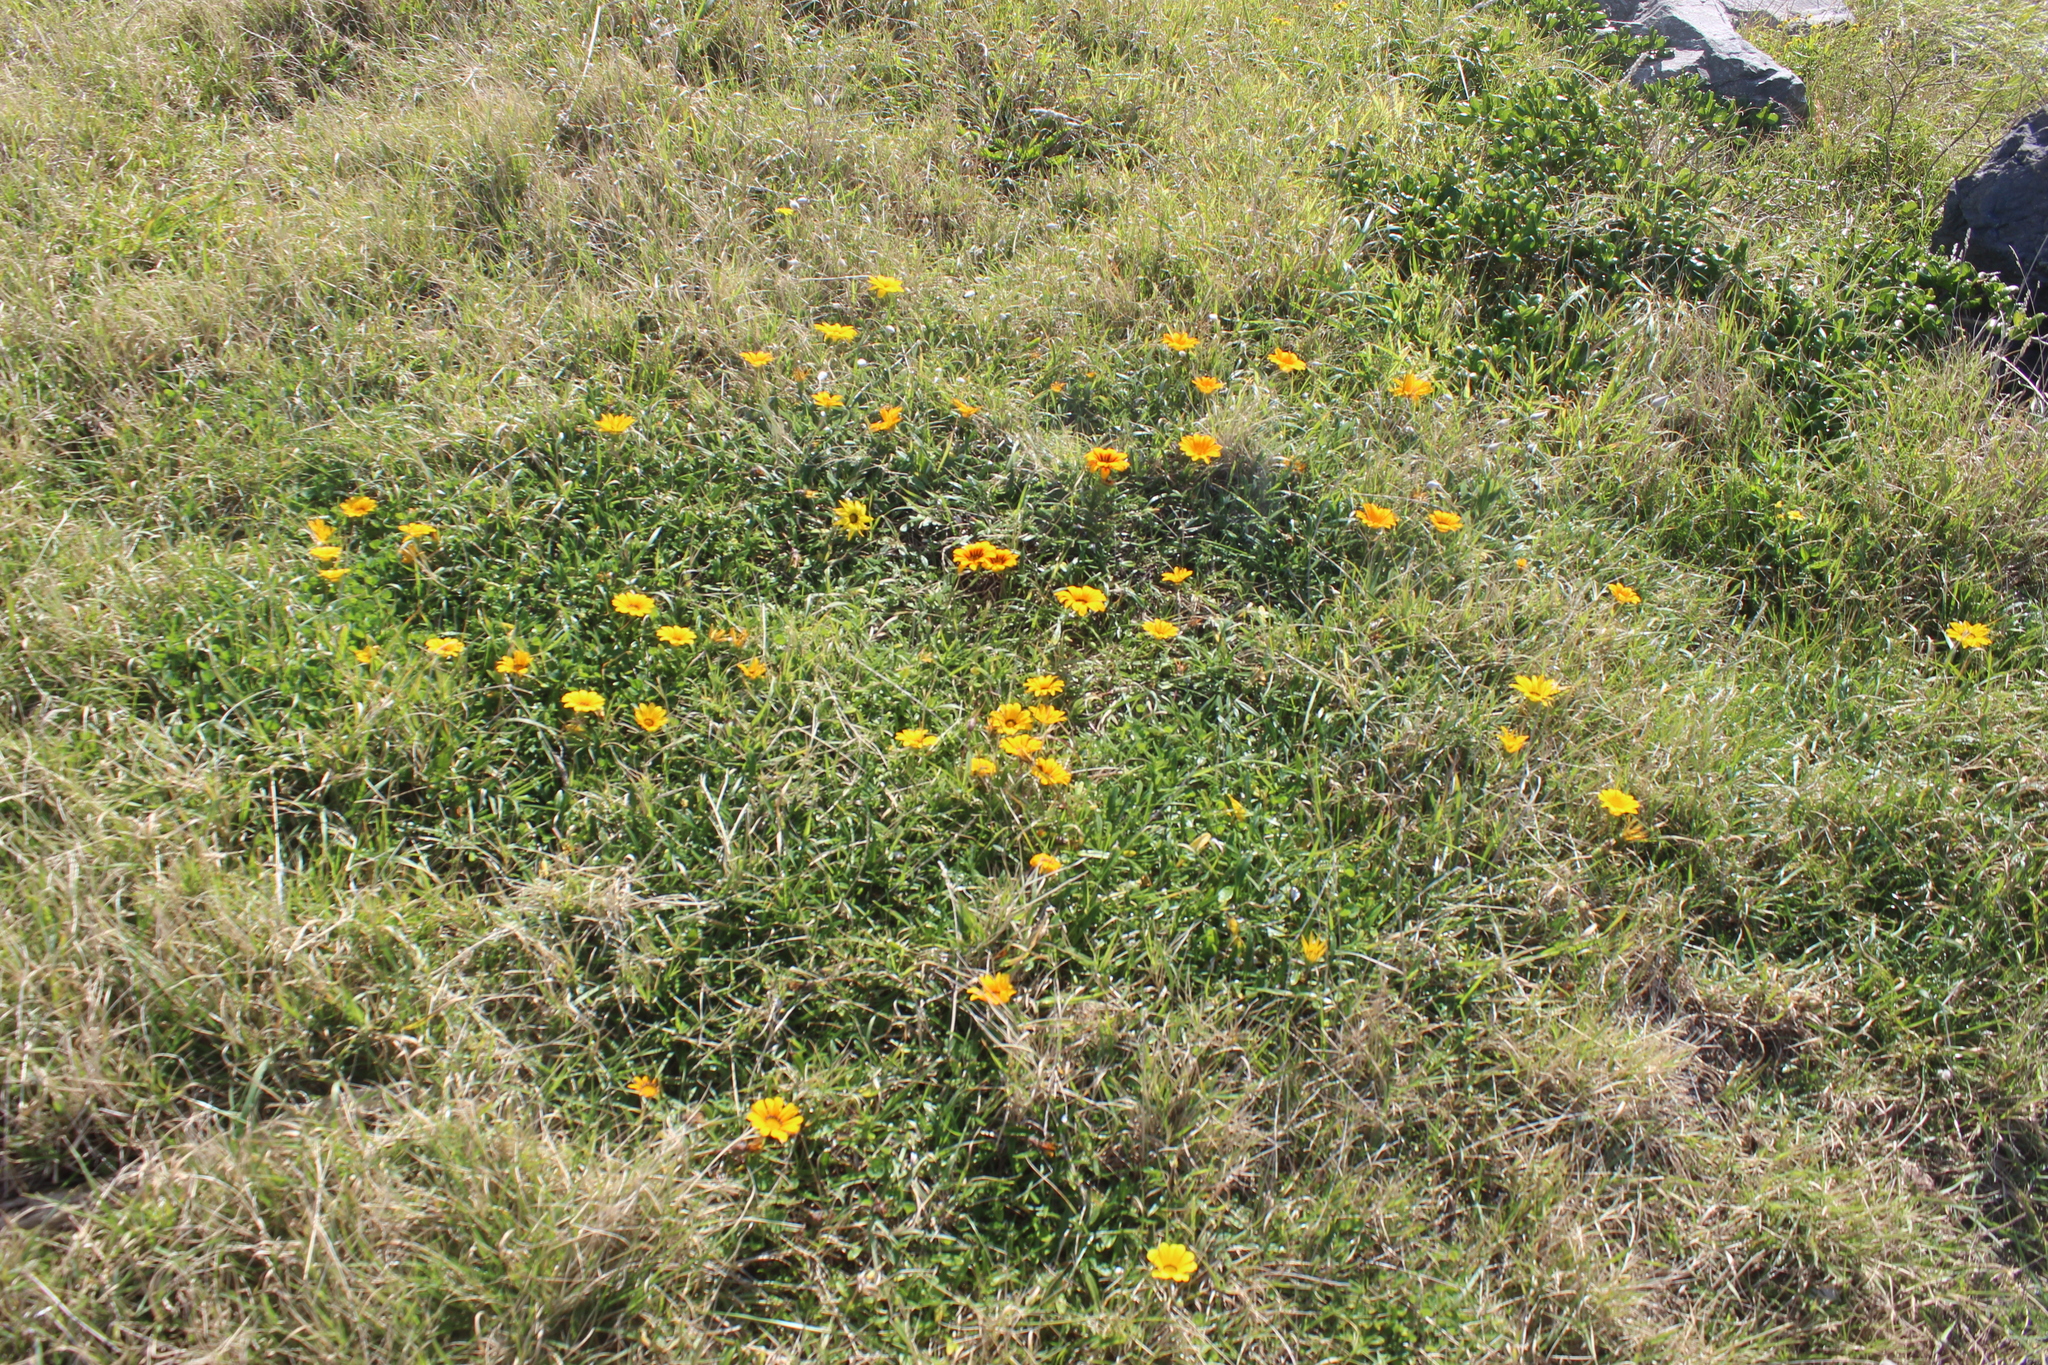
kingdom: Plantae
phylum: Tracheophyta
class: Magnoliopsida
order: Asterales
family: Asteraceae
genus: Gazania
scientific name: Gazania splendens
